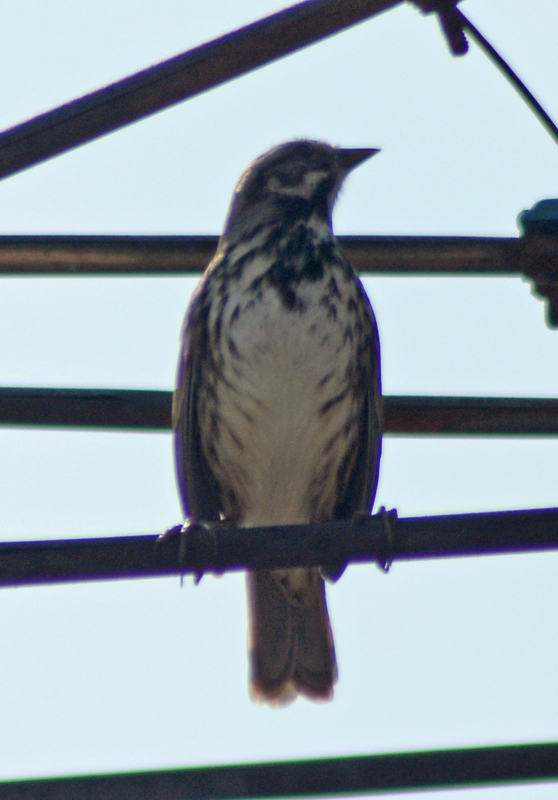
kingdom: Animalia
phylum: Chordata
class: Aves
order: Passeriformes
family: Passerellidae
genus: Melospiza
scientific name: Melospiza melodia
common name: Song sparrow
